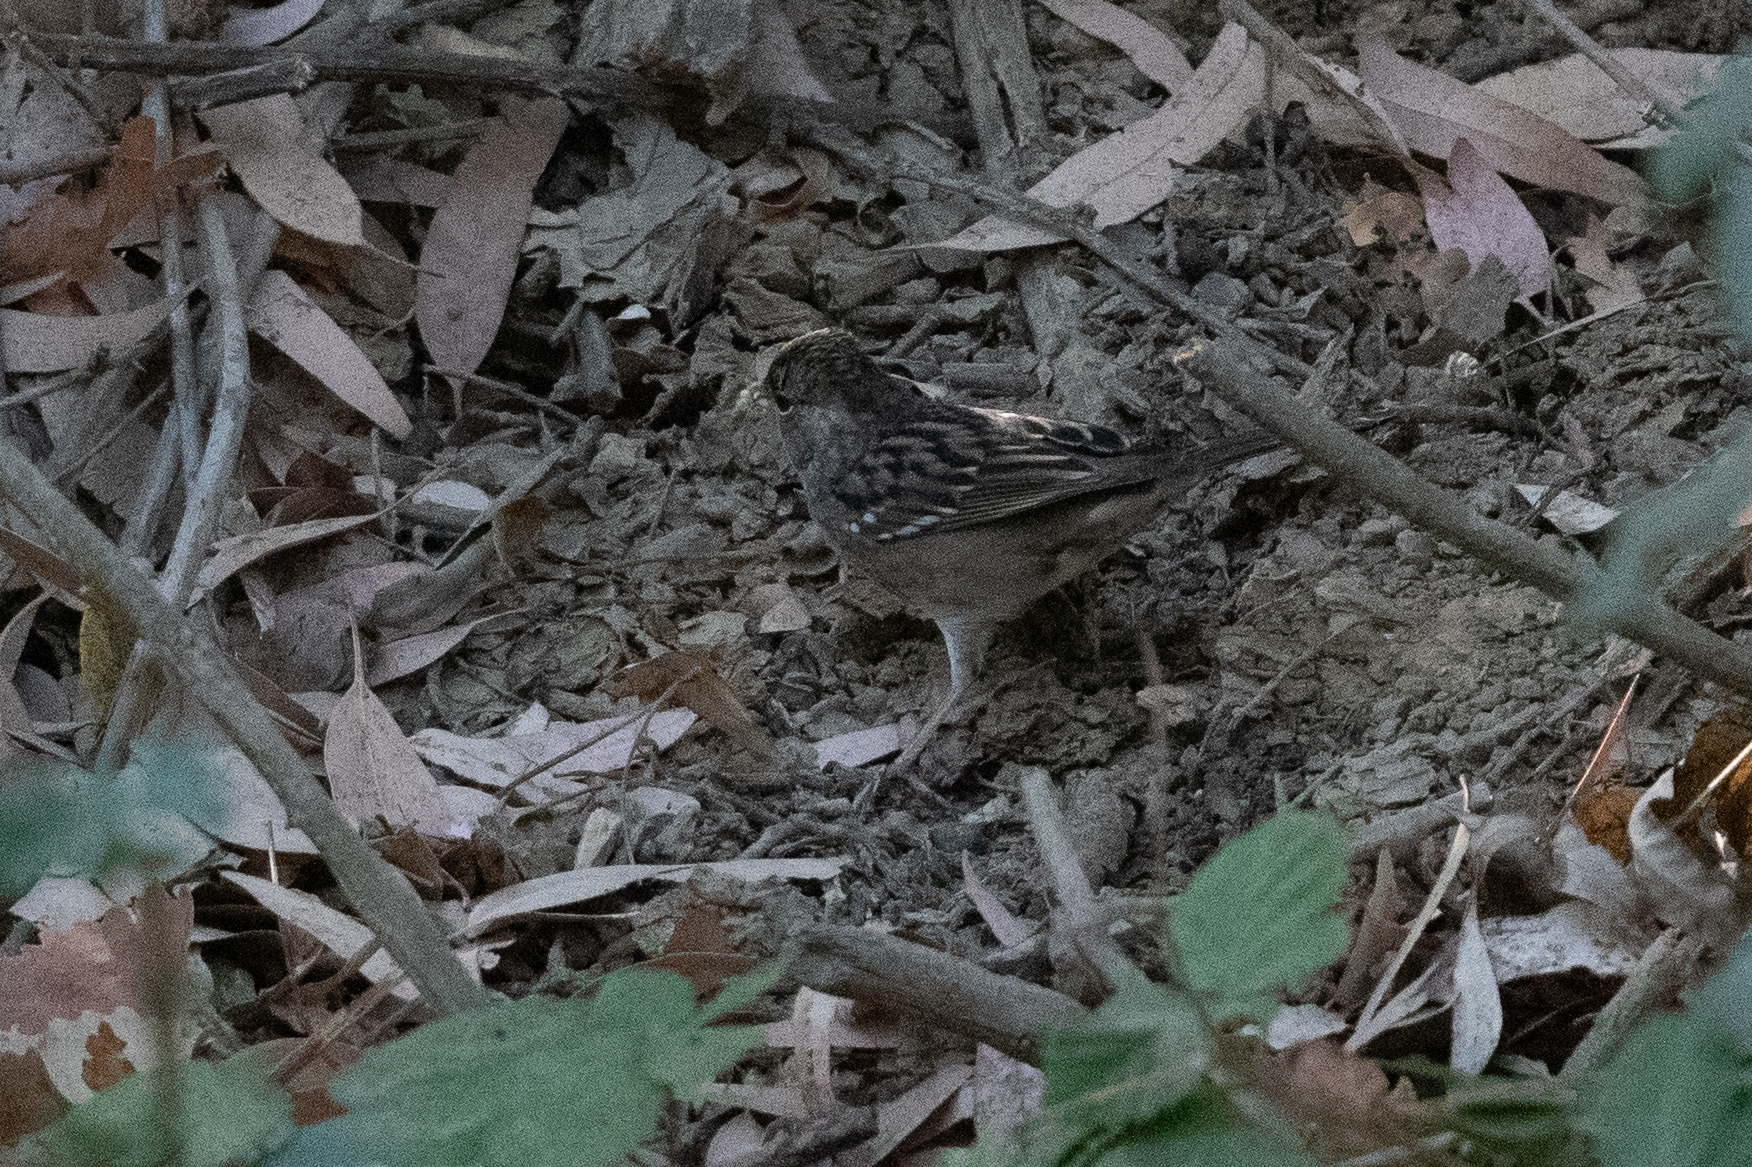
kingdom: Animalia
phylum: Chordata
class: Aves
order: Passeriformes
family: Passerellidae
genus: Zonotrichia
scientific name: Zonotrichia atricapilla
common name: Golden-crowned sparrow
